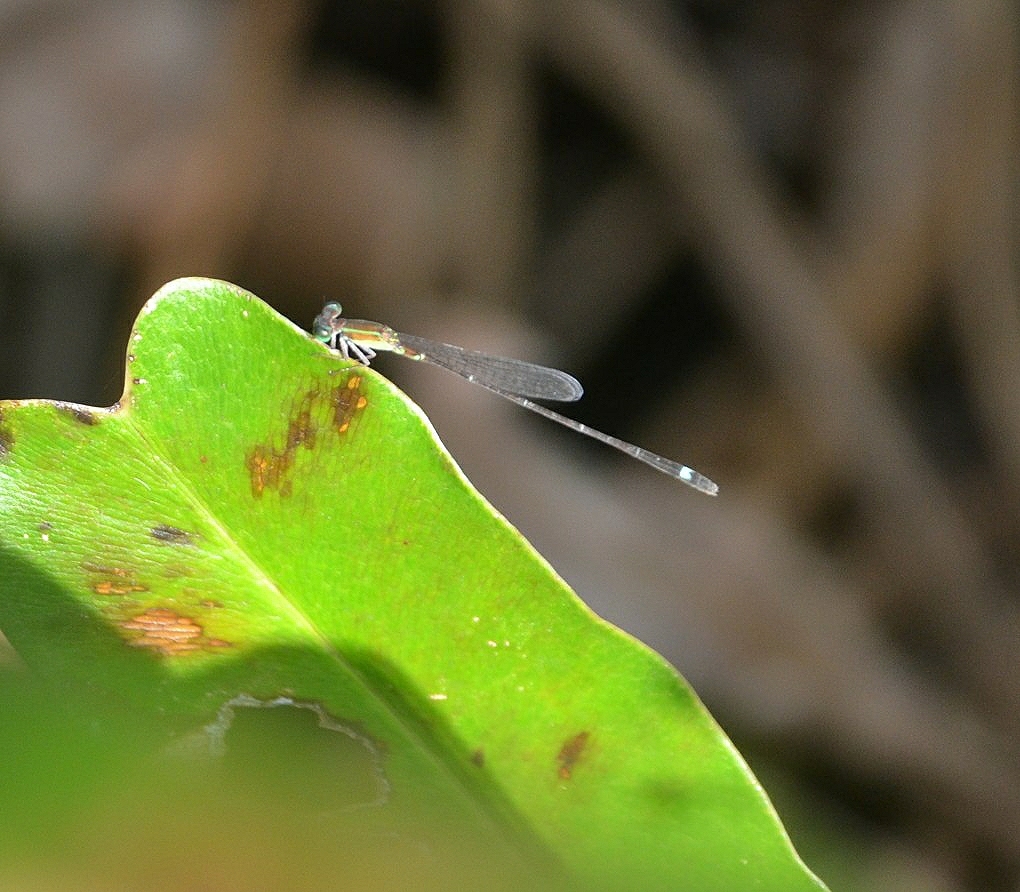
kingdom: Animalia
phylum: Arthropoda
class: Insecta
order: Odonata
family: Coenagrionidae
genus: Mortonagrion
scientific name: Mortonagrion varralli
